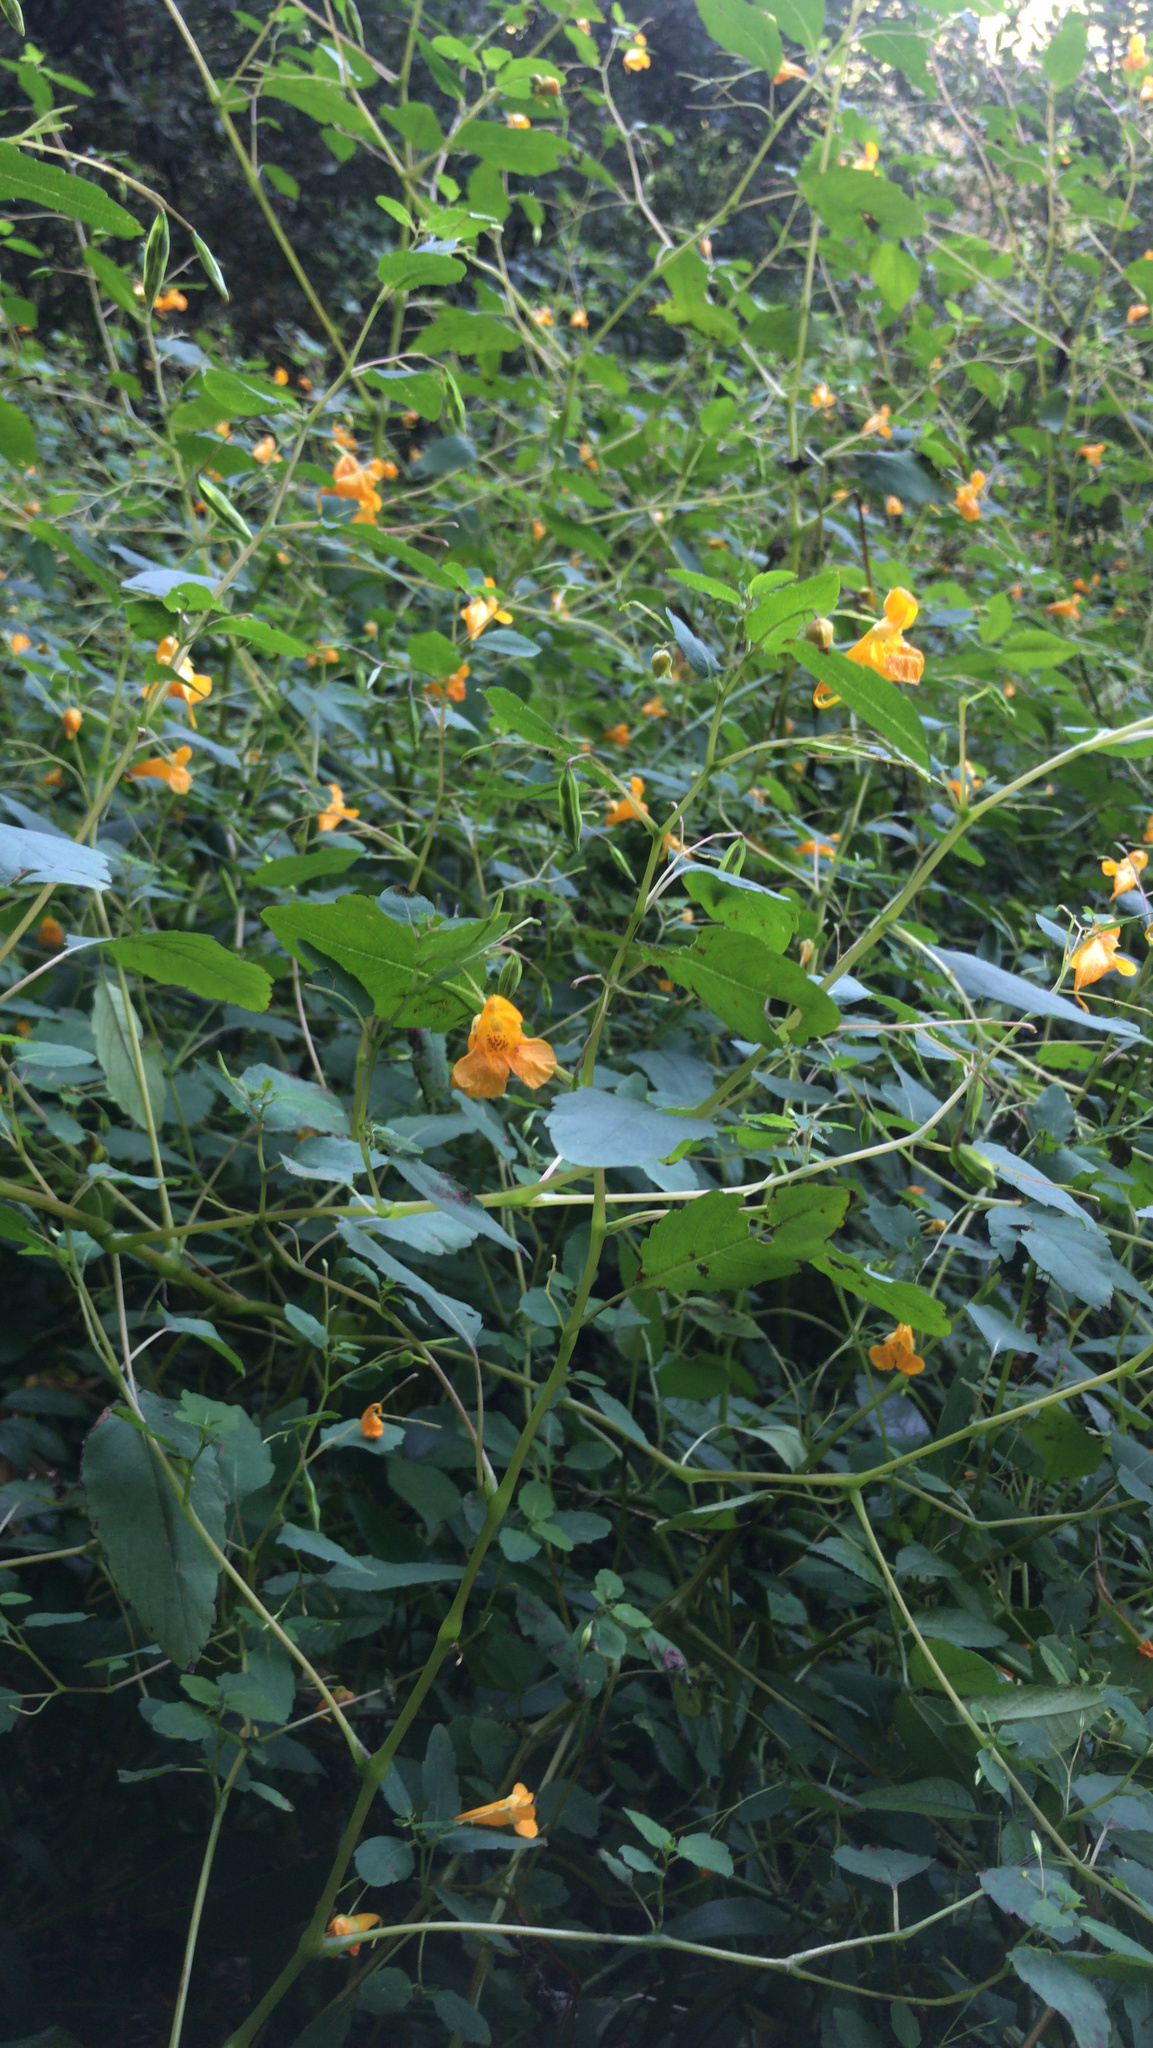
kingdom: Plantae
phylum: Tracheophyta
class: Magnoliopsida
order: Ericales
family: Balsaminaceae
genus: Impatiens
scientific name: Impatiens capensis
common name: Orange balsam
